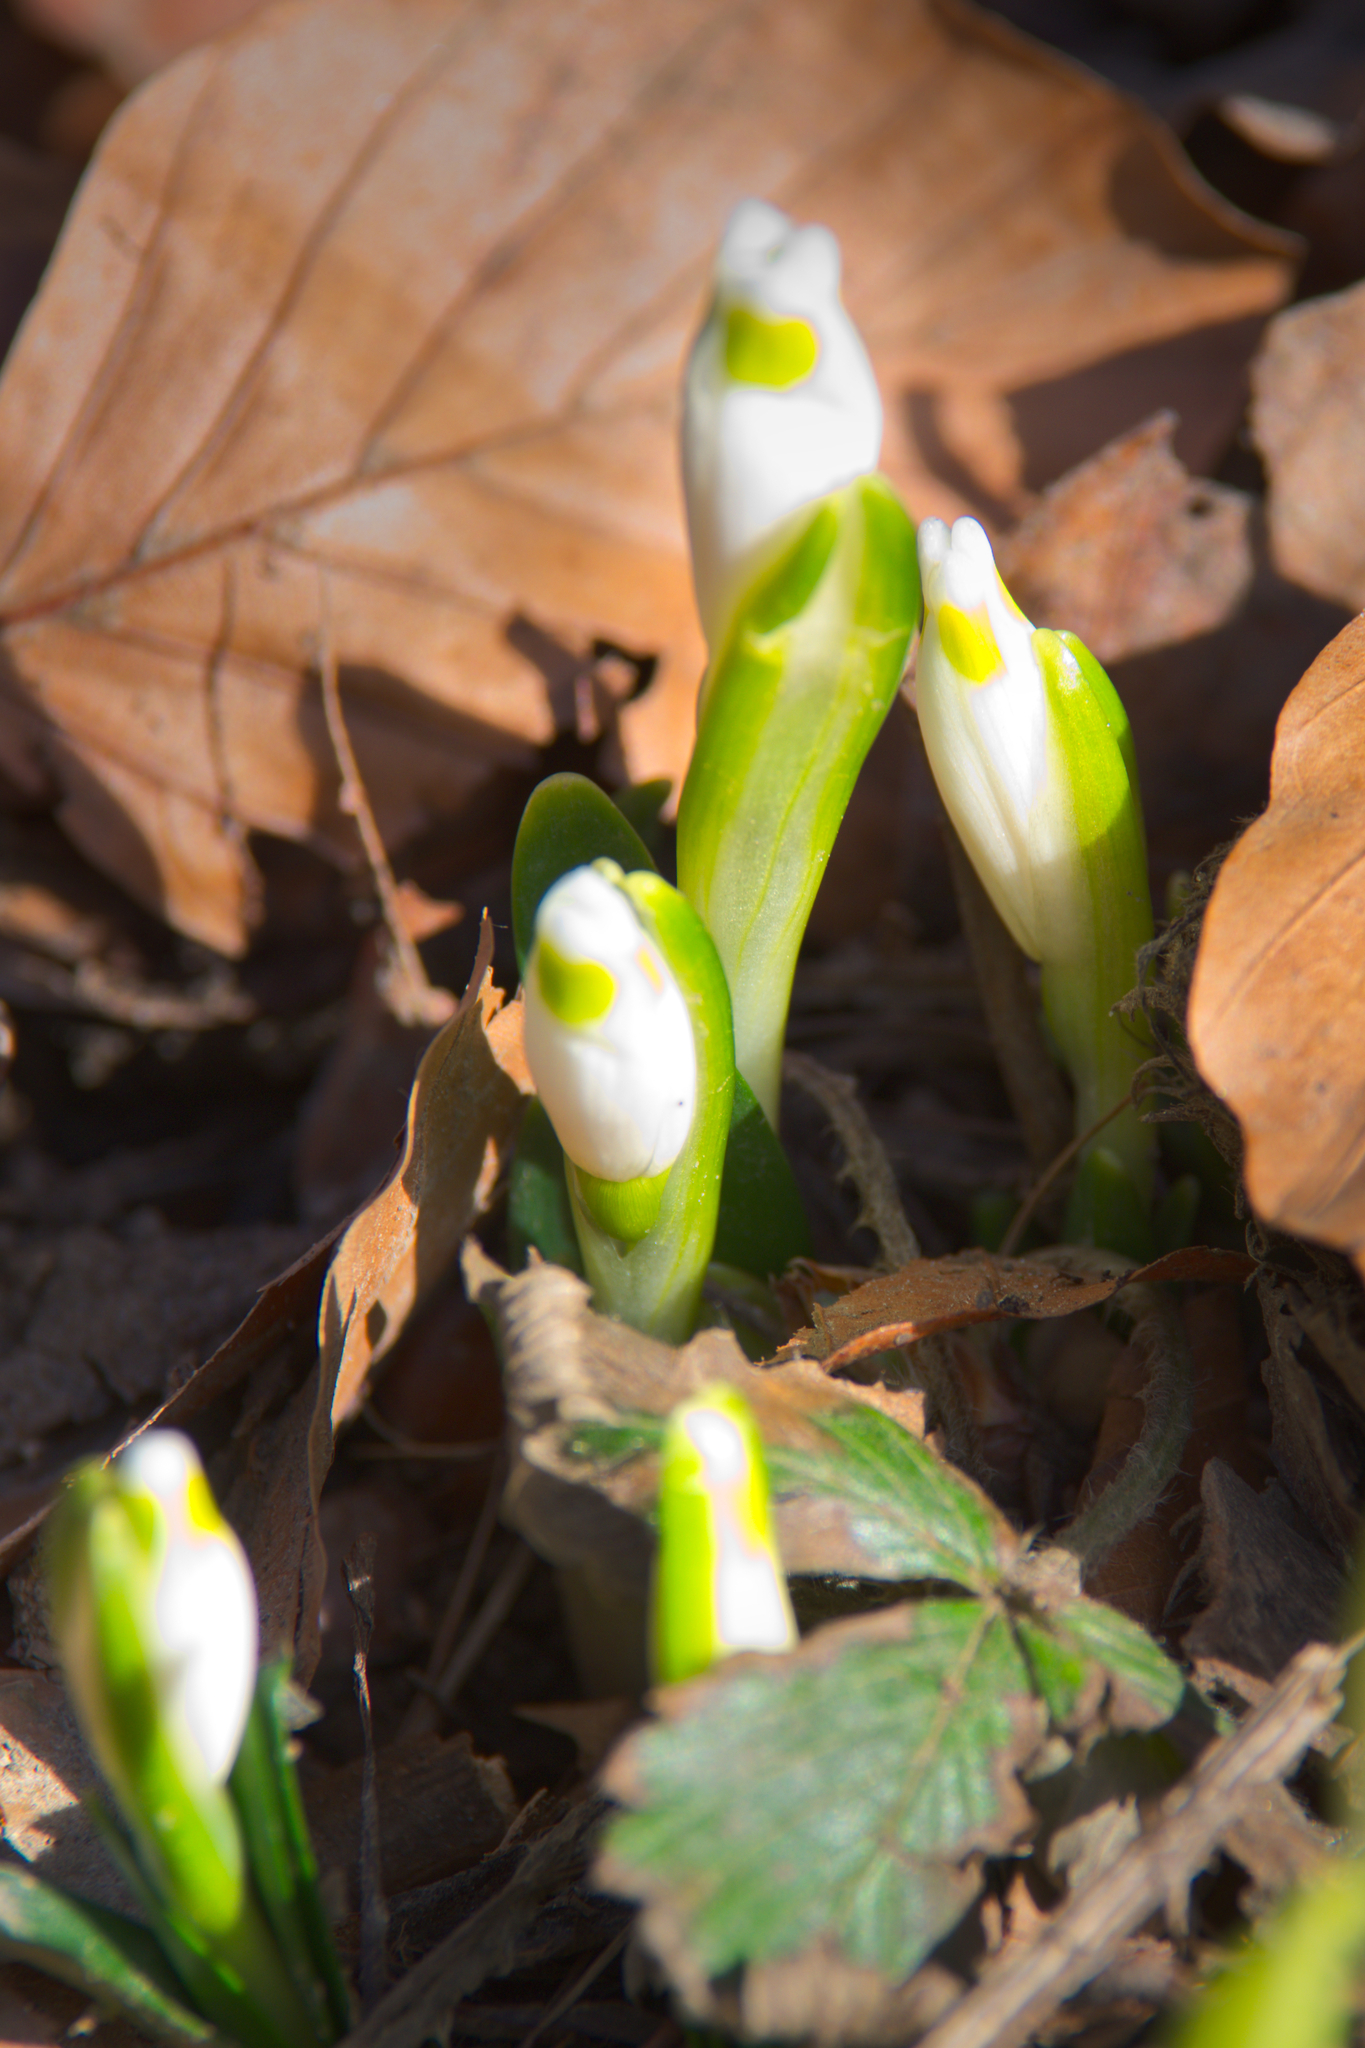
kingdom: Plantae
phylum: Tracheophyta
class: Liliopsida
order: Asparagales
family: Amaryllidaceae
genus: Leucojum
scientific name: Leucojum vernum
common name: Spring snowflake
